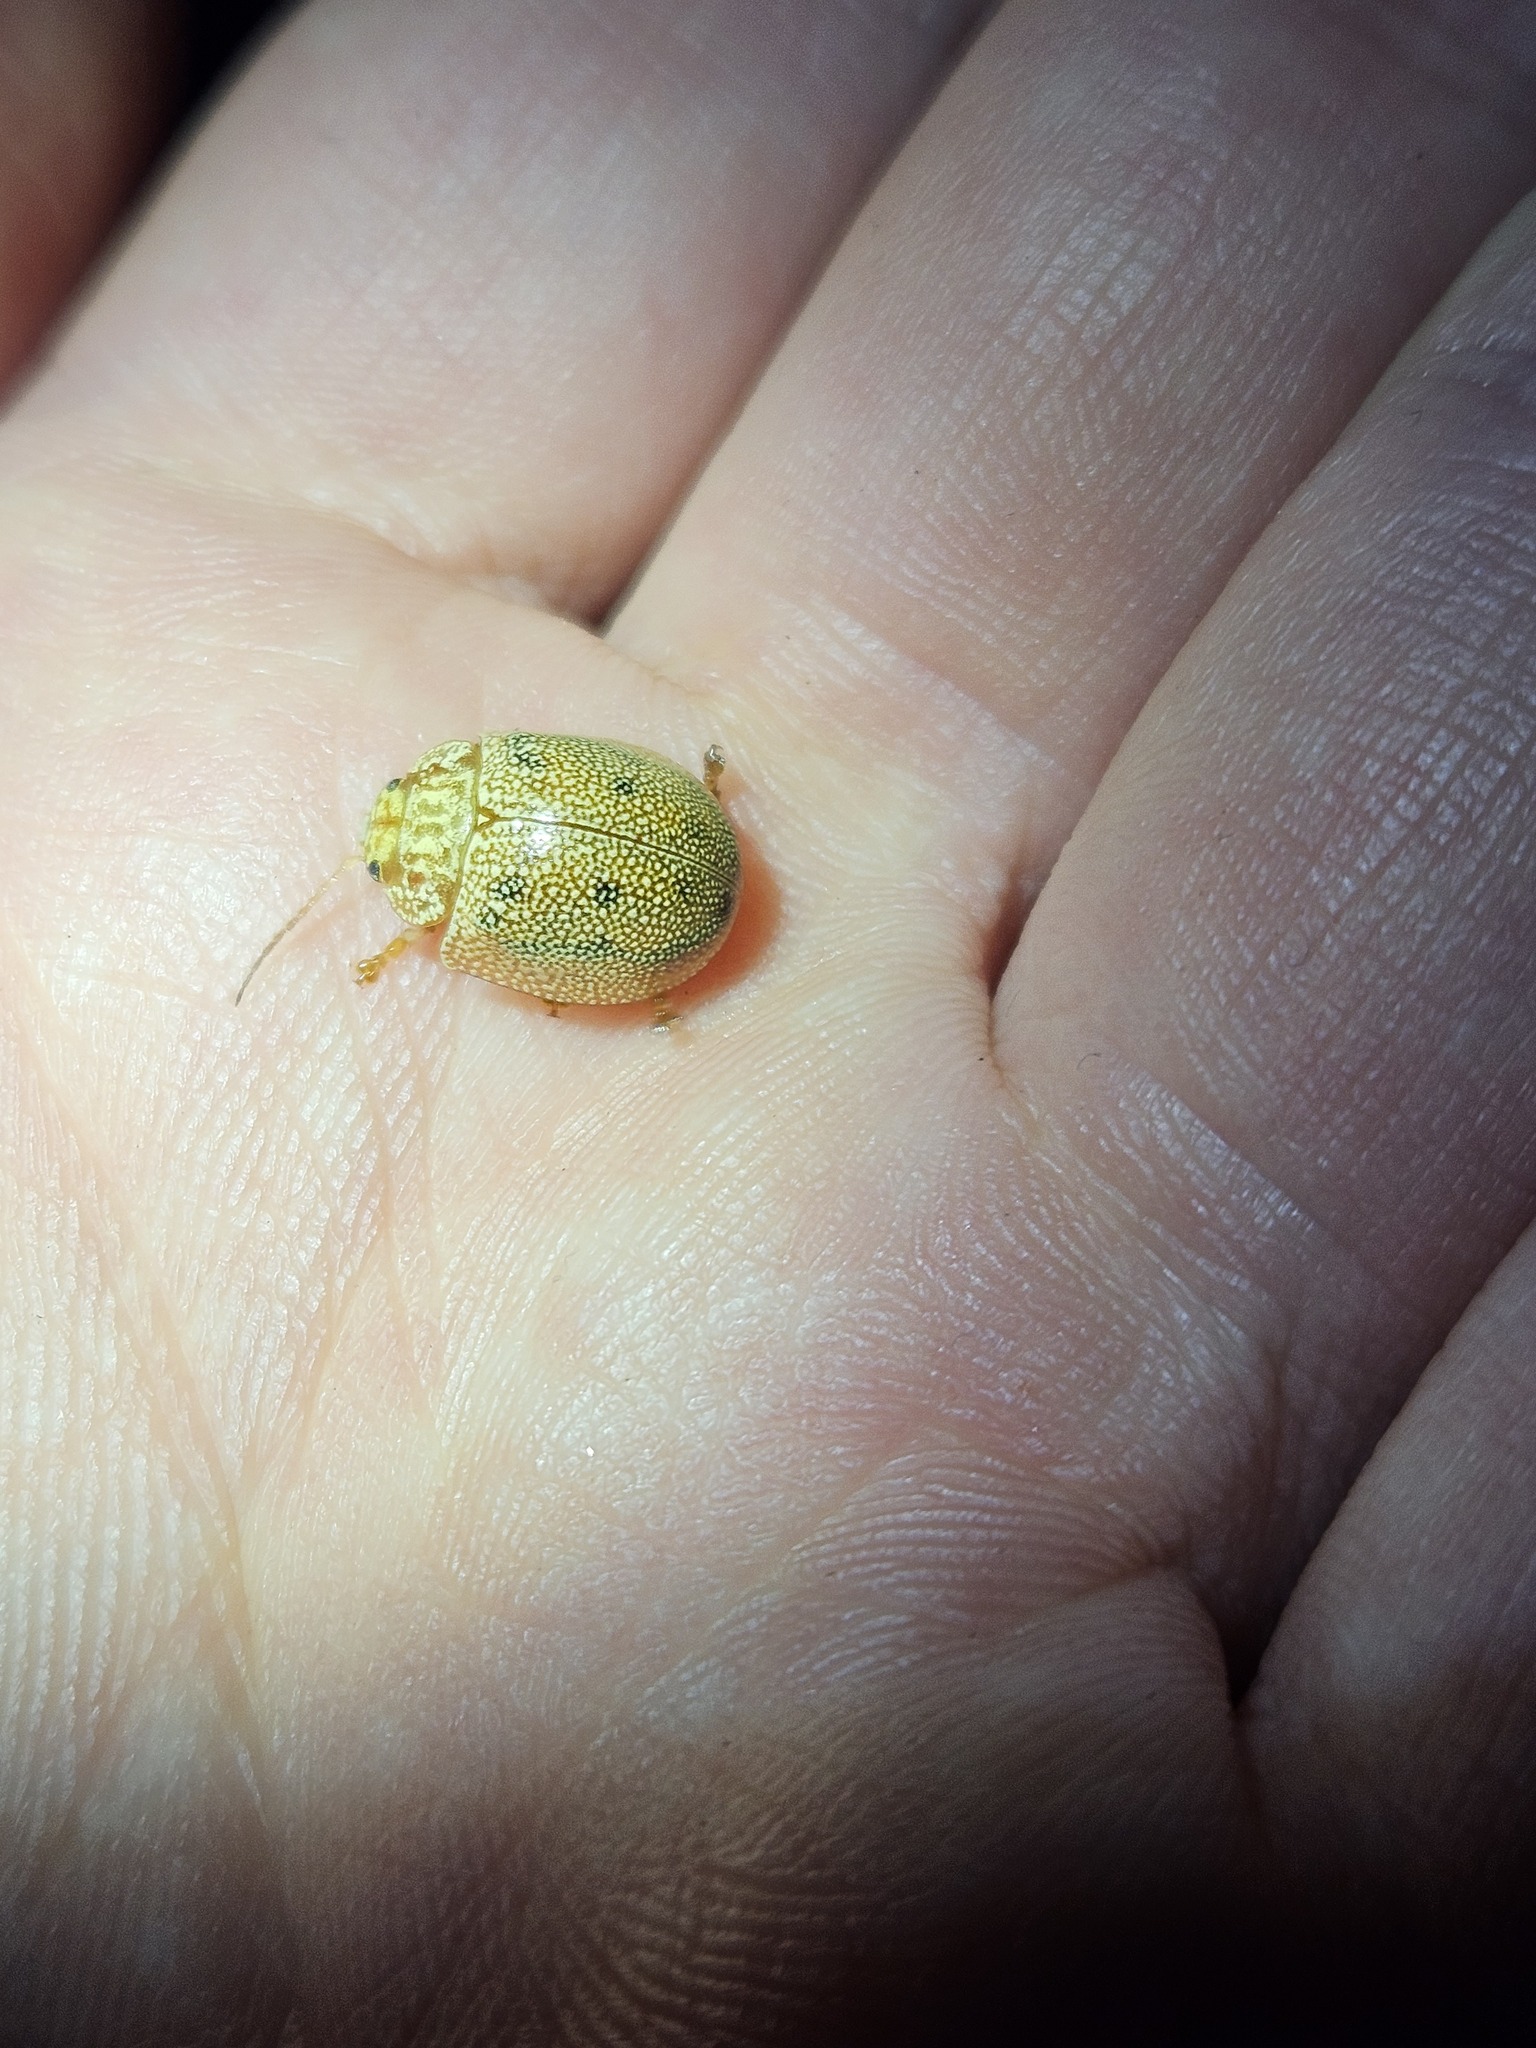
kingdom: Animalia
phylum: Arthropoda
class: Insecta
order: Coleoptera
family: Chrysomelidae
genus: Paropsis
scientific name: Paropsis
